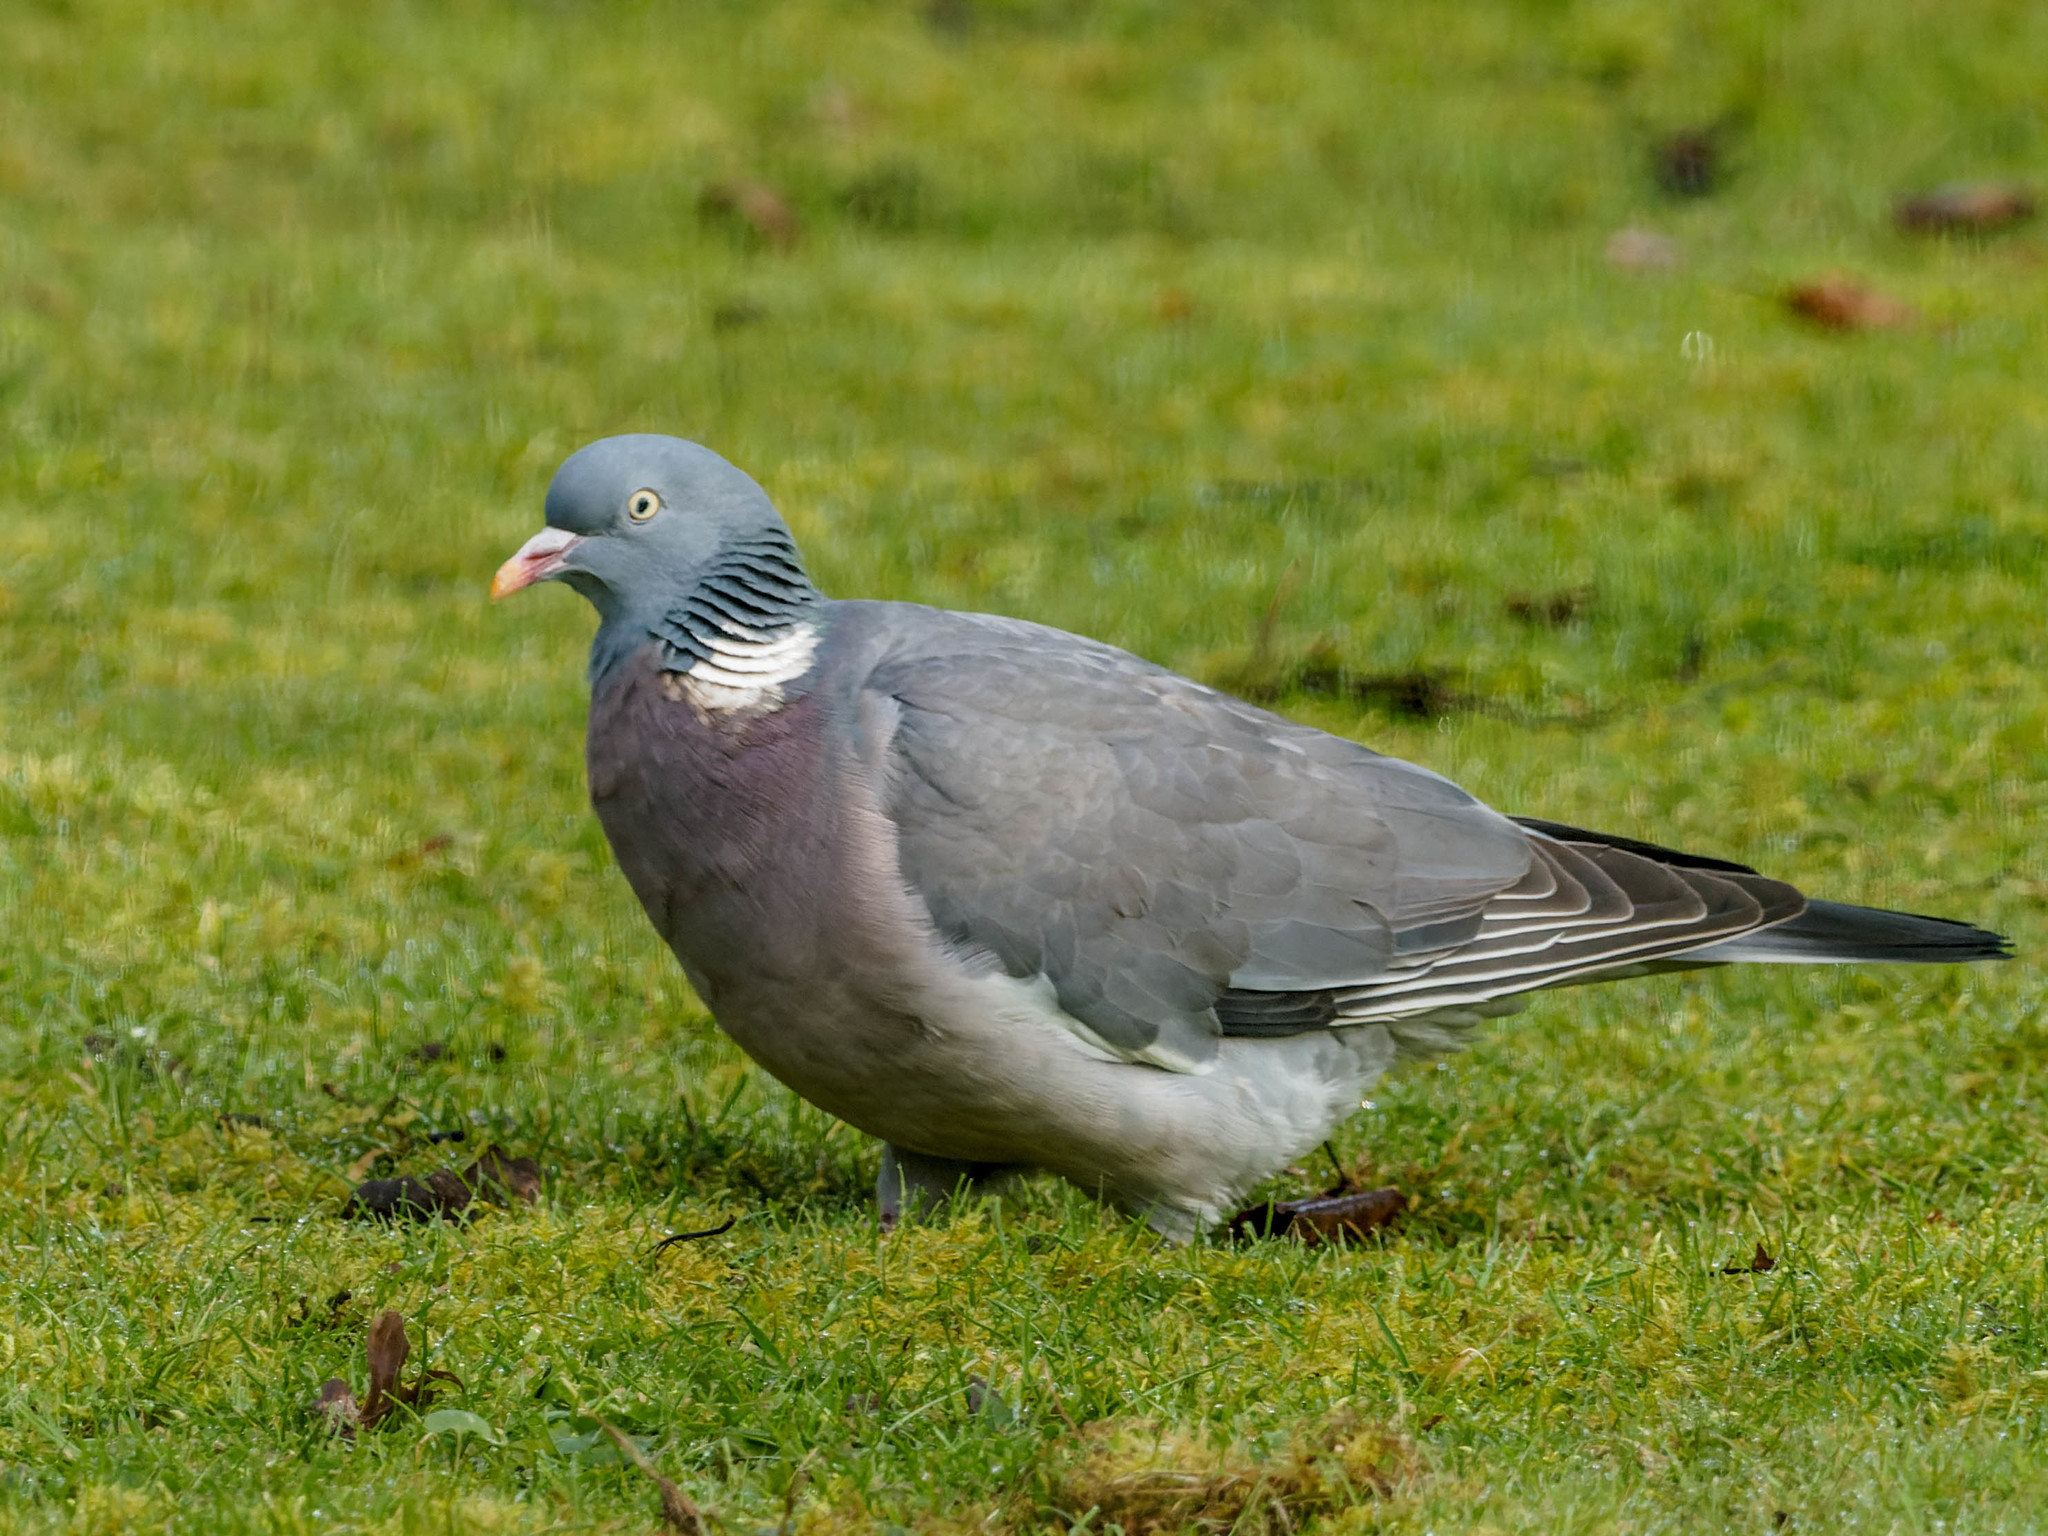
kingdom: Animalia
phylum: Chordata
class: Aves
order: Columbiformes
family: Columbidae
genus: Columba
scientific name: Columba palumbus
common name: Common wood pigeon
